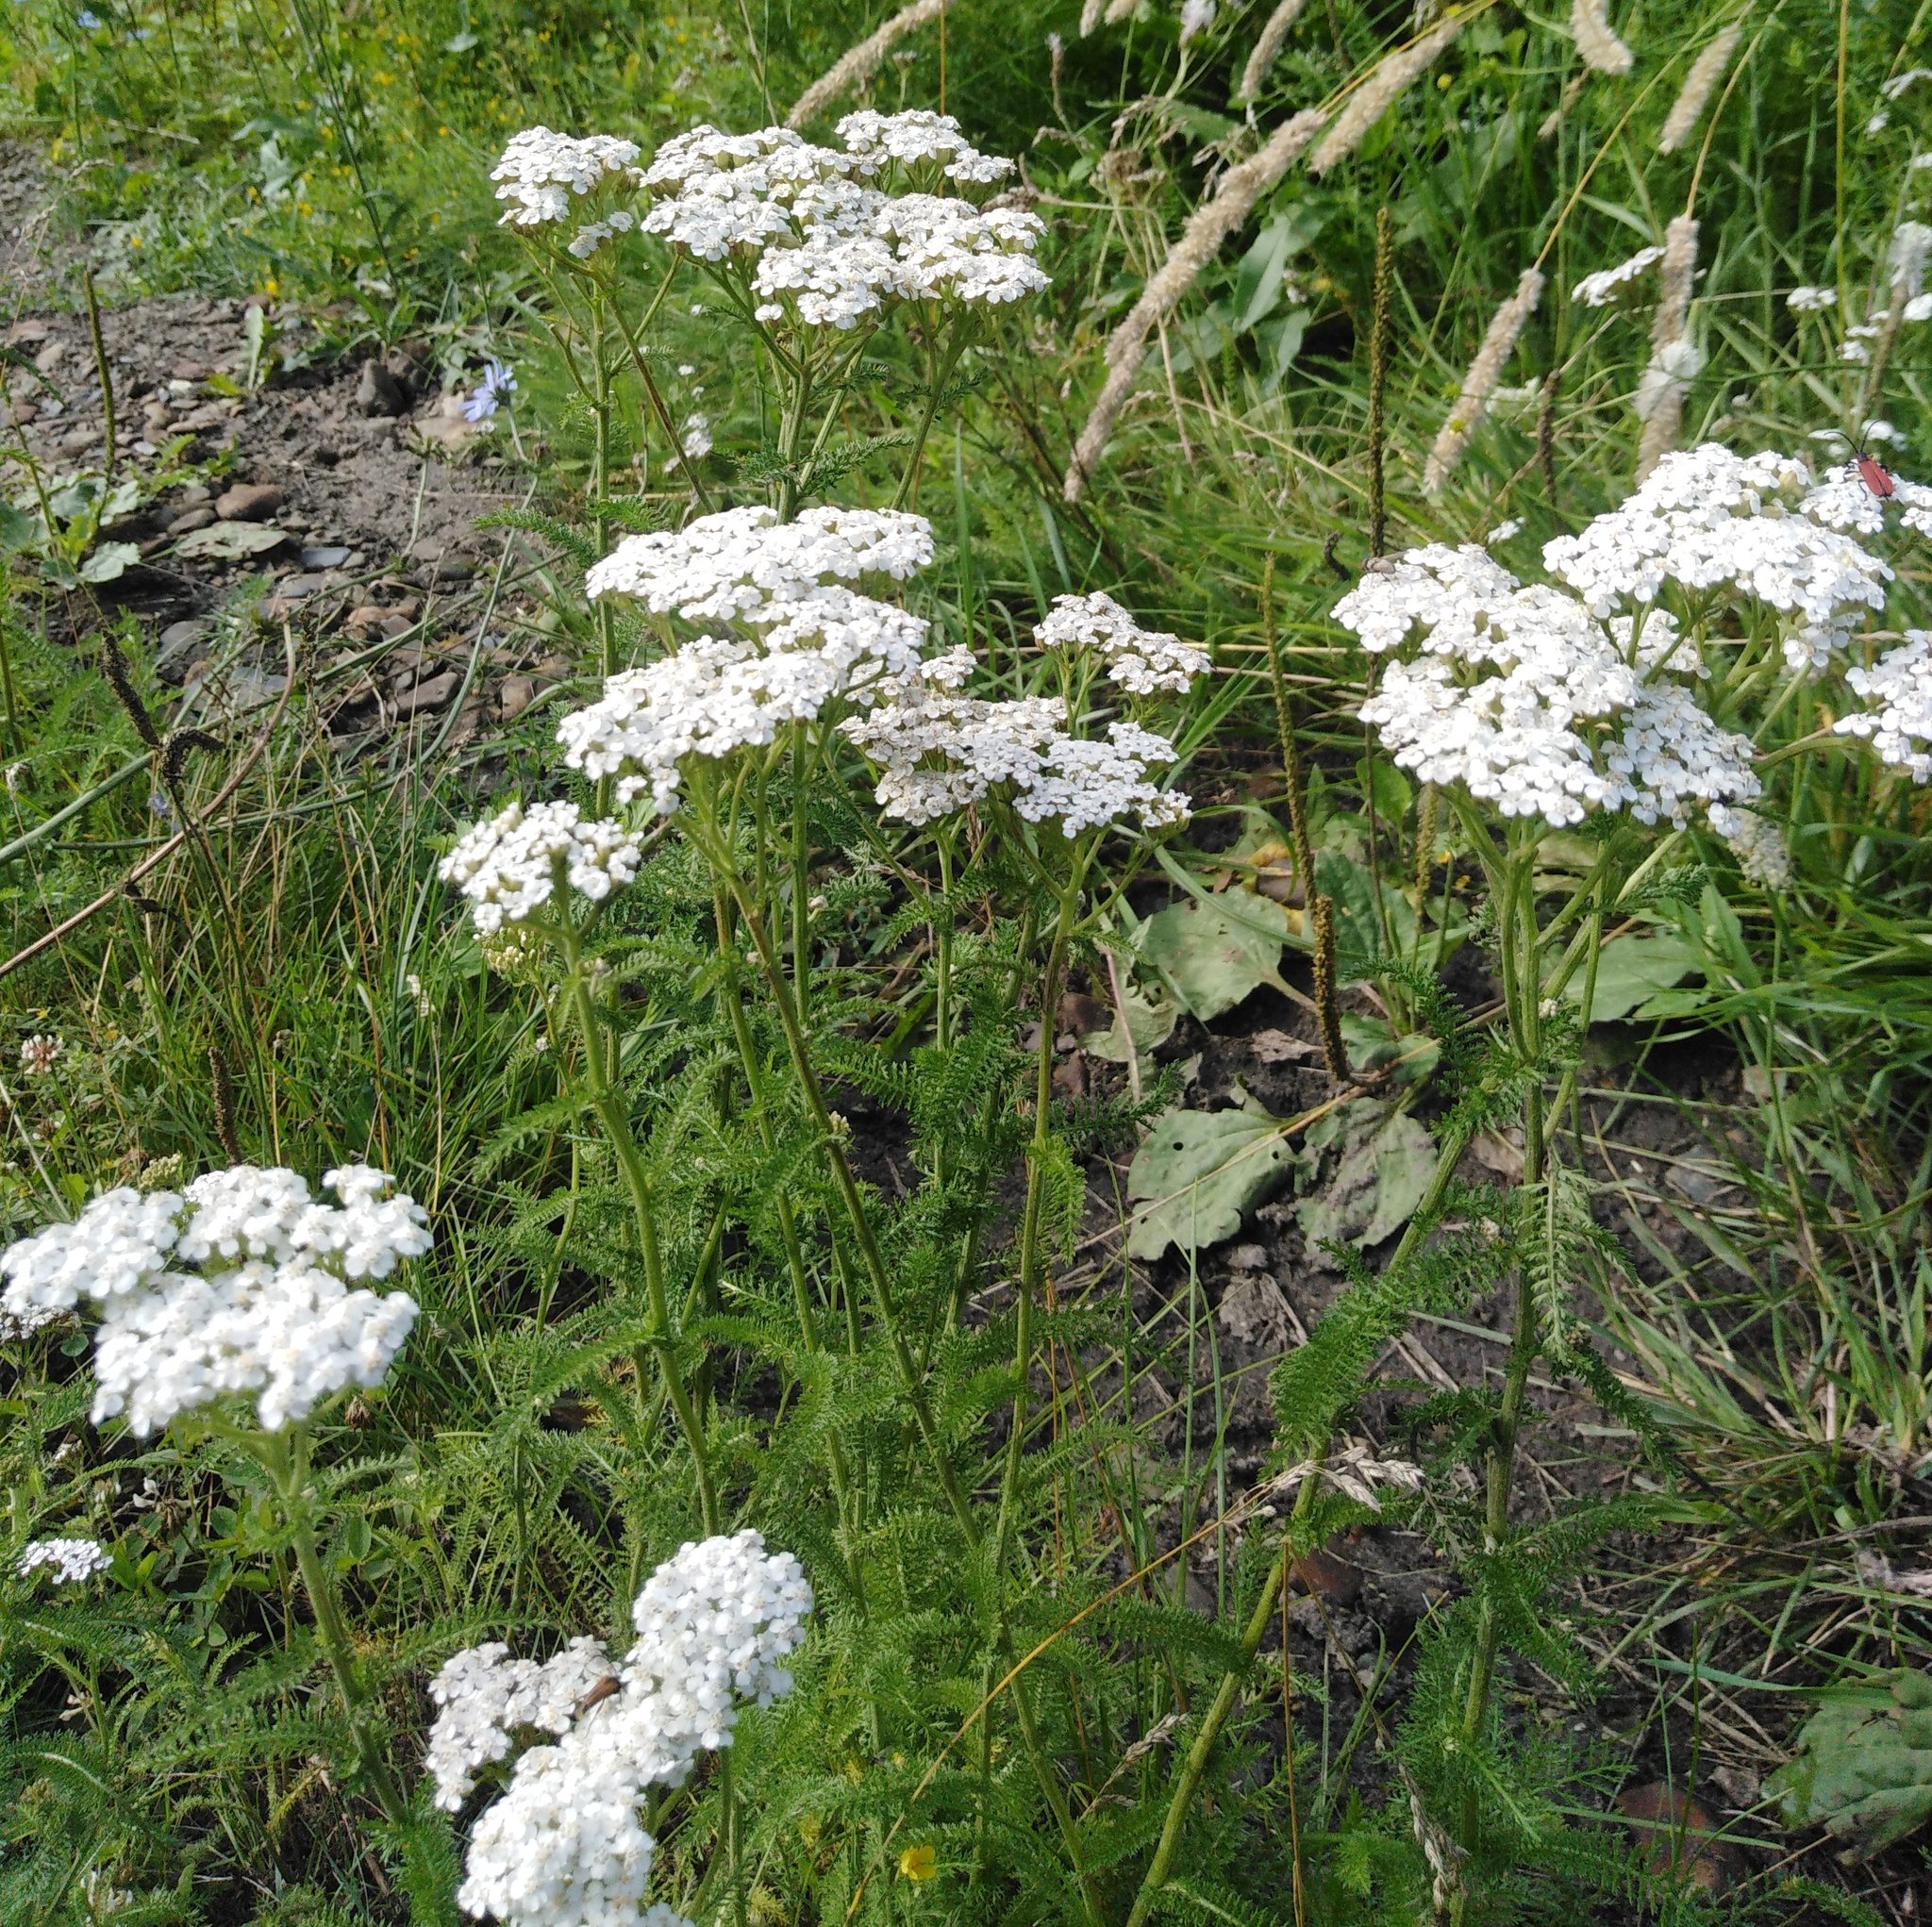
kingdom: Plantae
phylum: Tracheophyta
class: Magnoliopsida
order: Asterales
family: Asteraceae
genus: Achillea
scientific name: Achillea millefolium
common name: Yarrow
